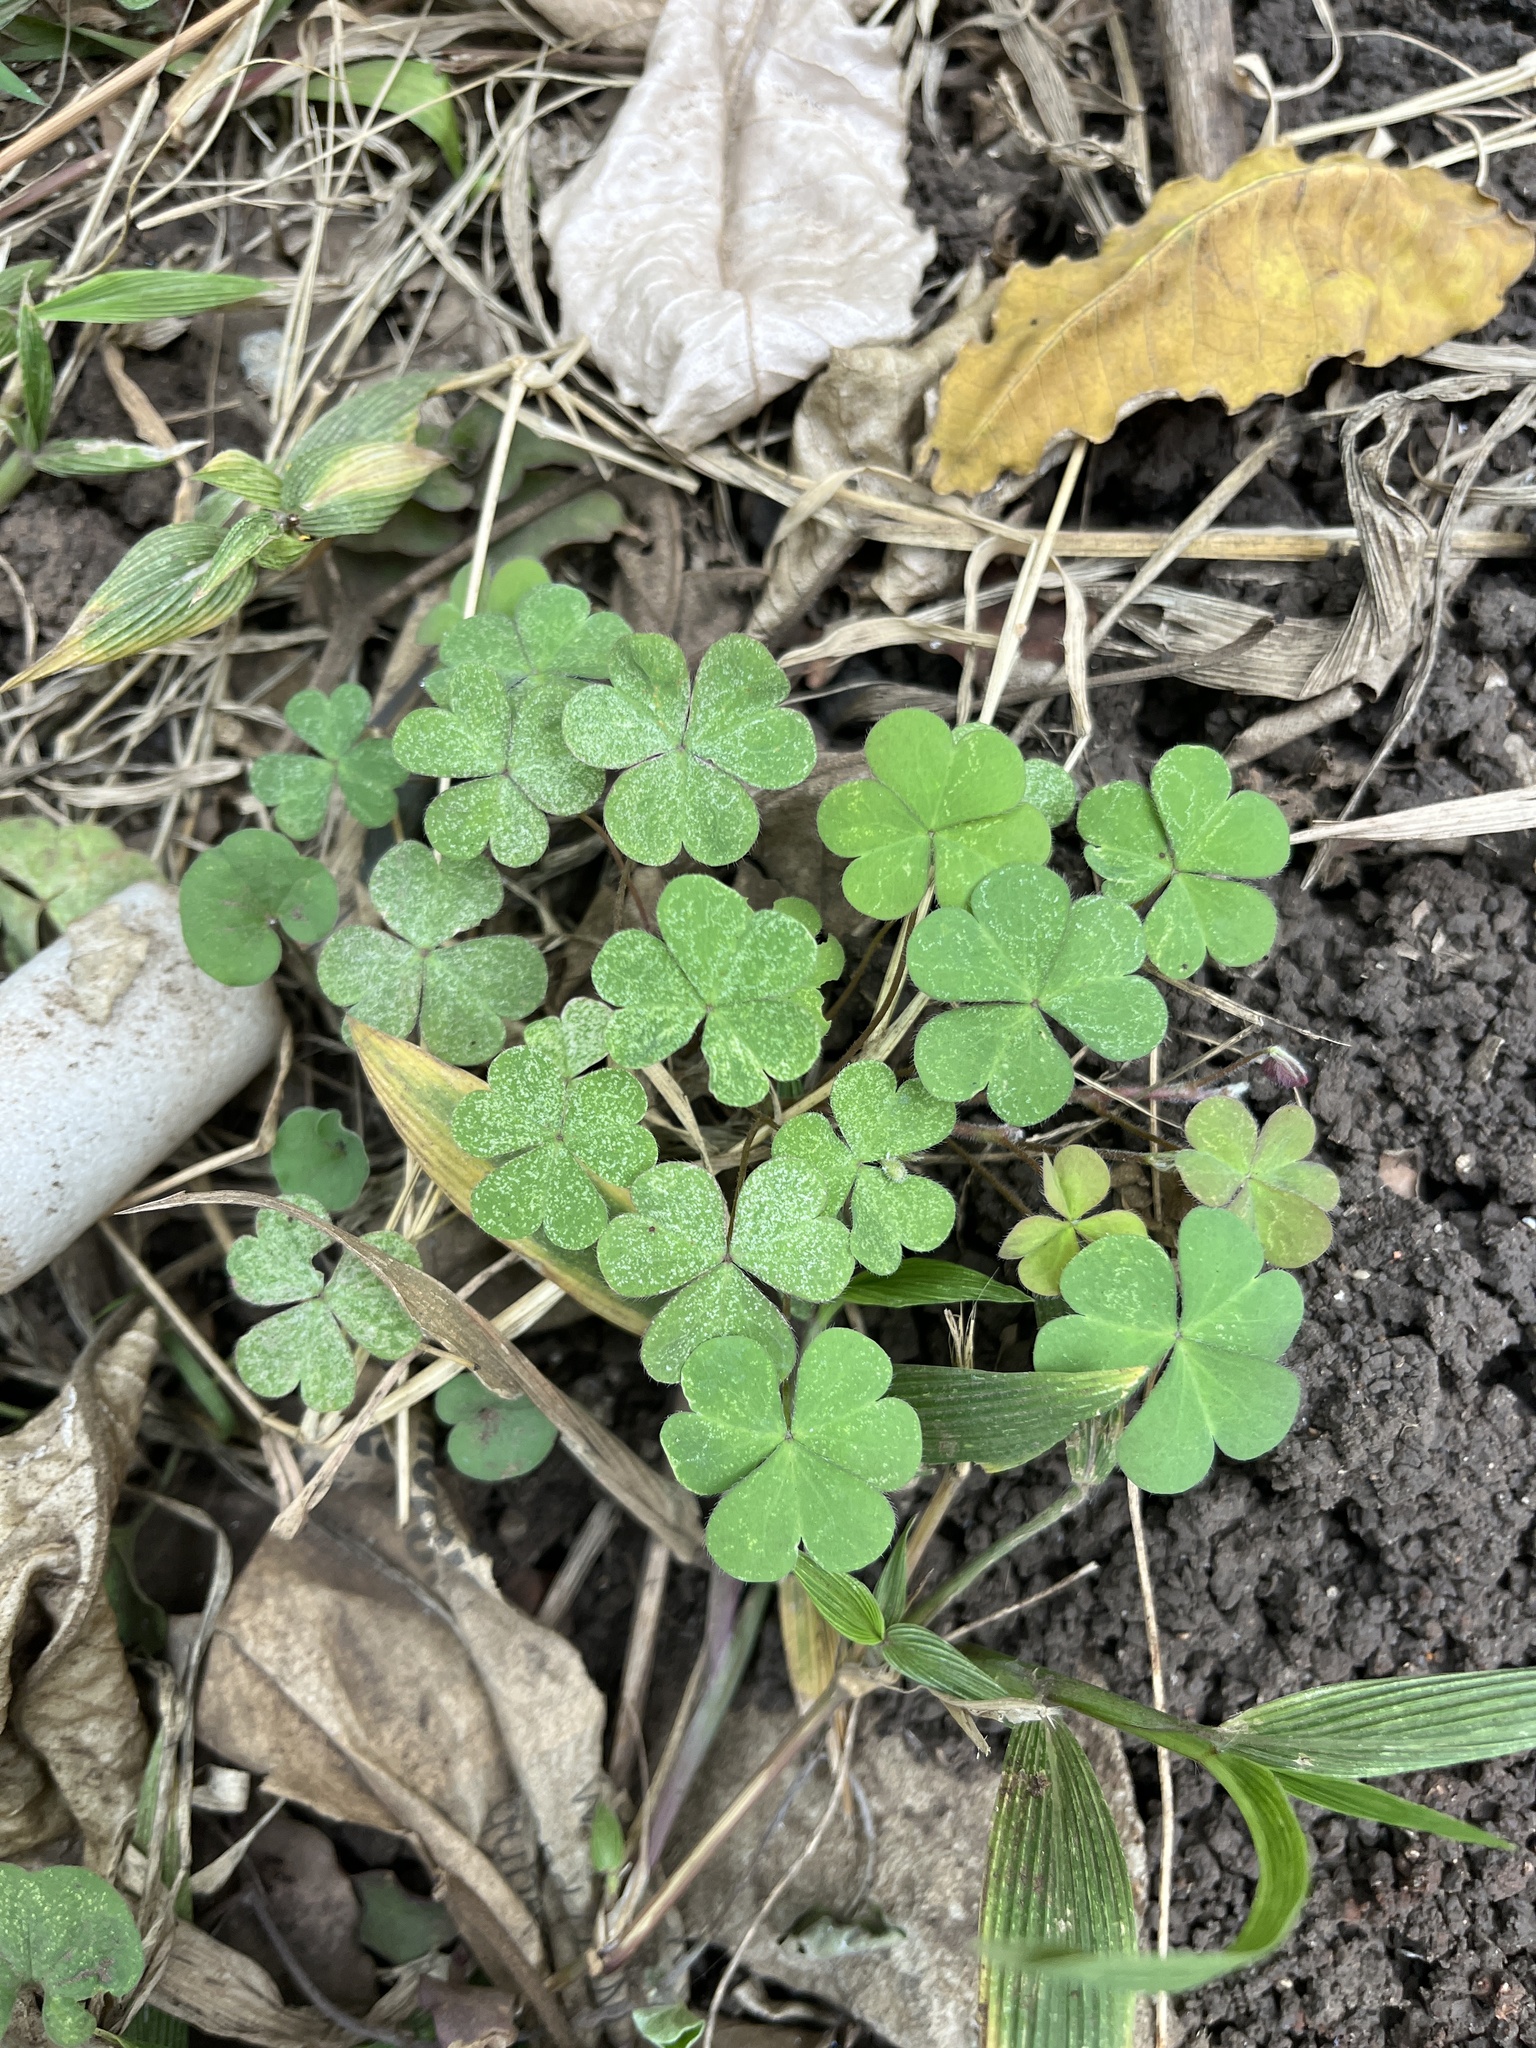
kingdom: Plantae
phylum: Tracheophyta
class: Magnoliopsida
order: Oxalidales
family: Oxalidaceae
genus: Oxalis
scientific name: Oxalis corniculata
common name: Procumbent yellow-sorrel
